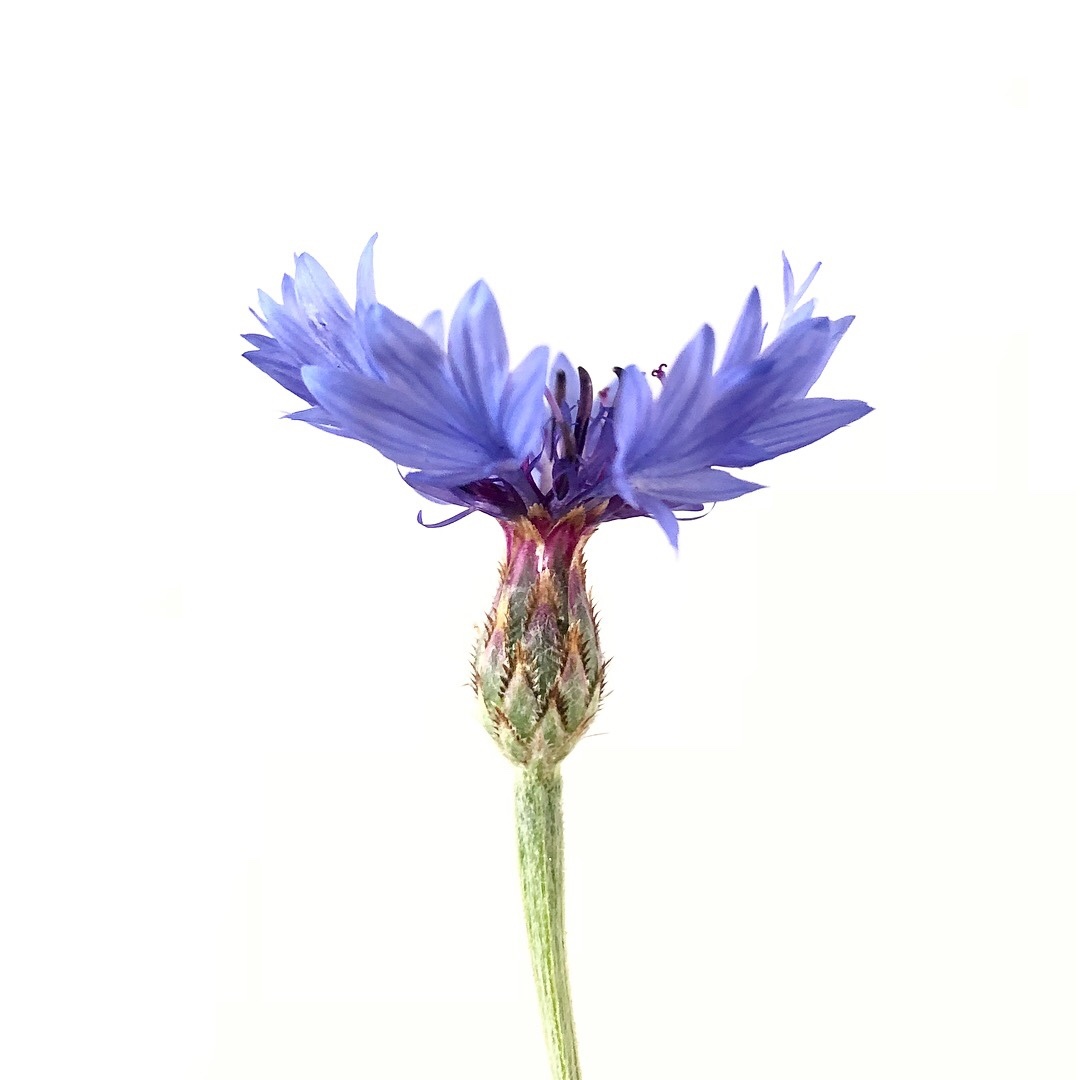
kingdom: Plantae
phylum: Tracheophyta
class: Magnoliopsida
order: Asterales
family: Asteraceae
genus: Centaurea
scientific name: Centaurea cyanus
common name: Cornflower
